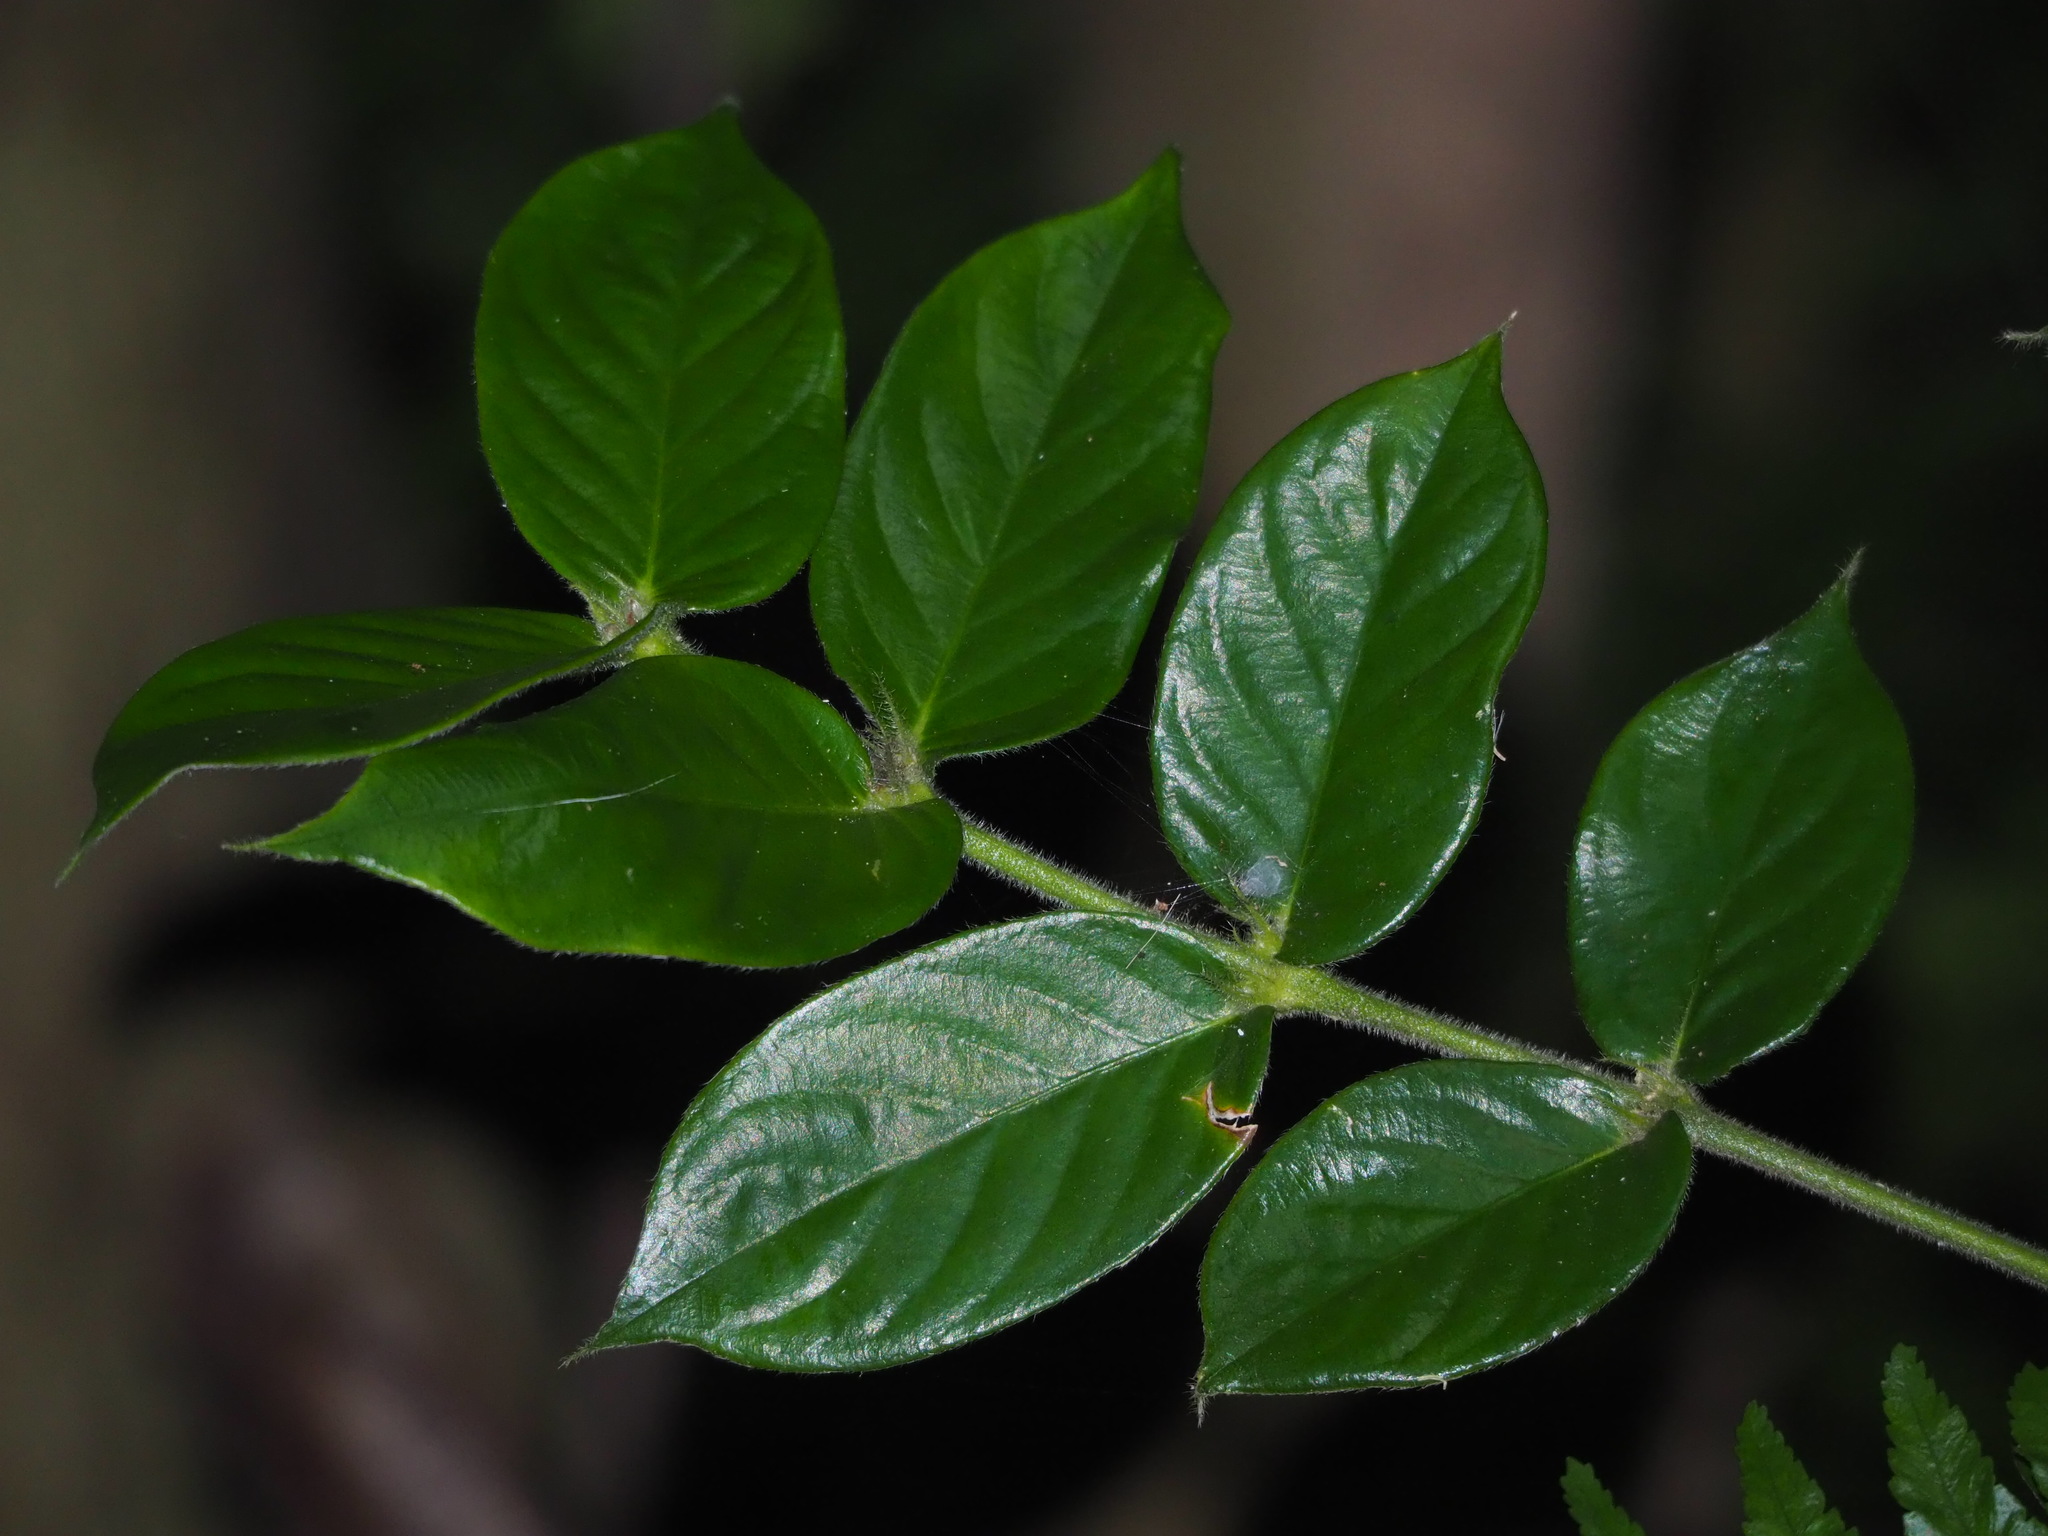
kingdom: Plantae
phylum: Tracheophyta
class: Magnoliopsida
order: Gentianales
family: Rubiaceae
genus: Lasianthus
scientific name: Lasianthus attenuatus
